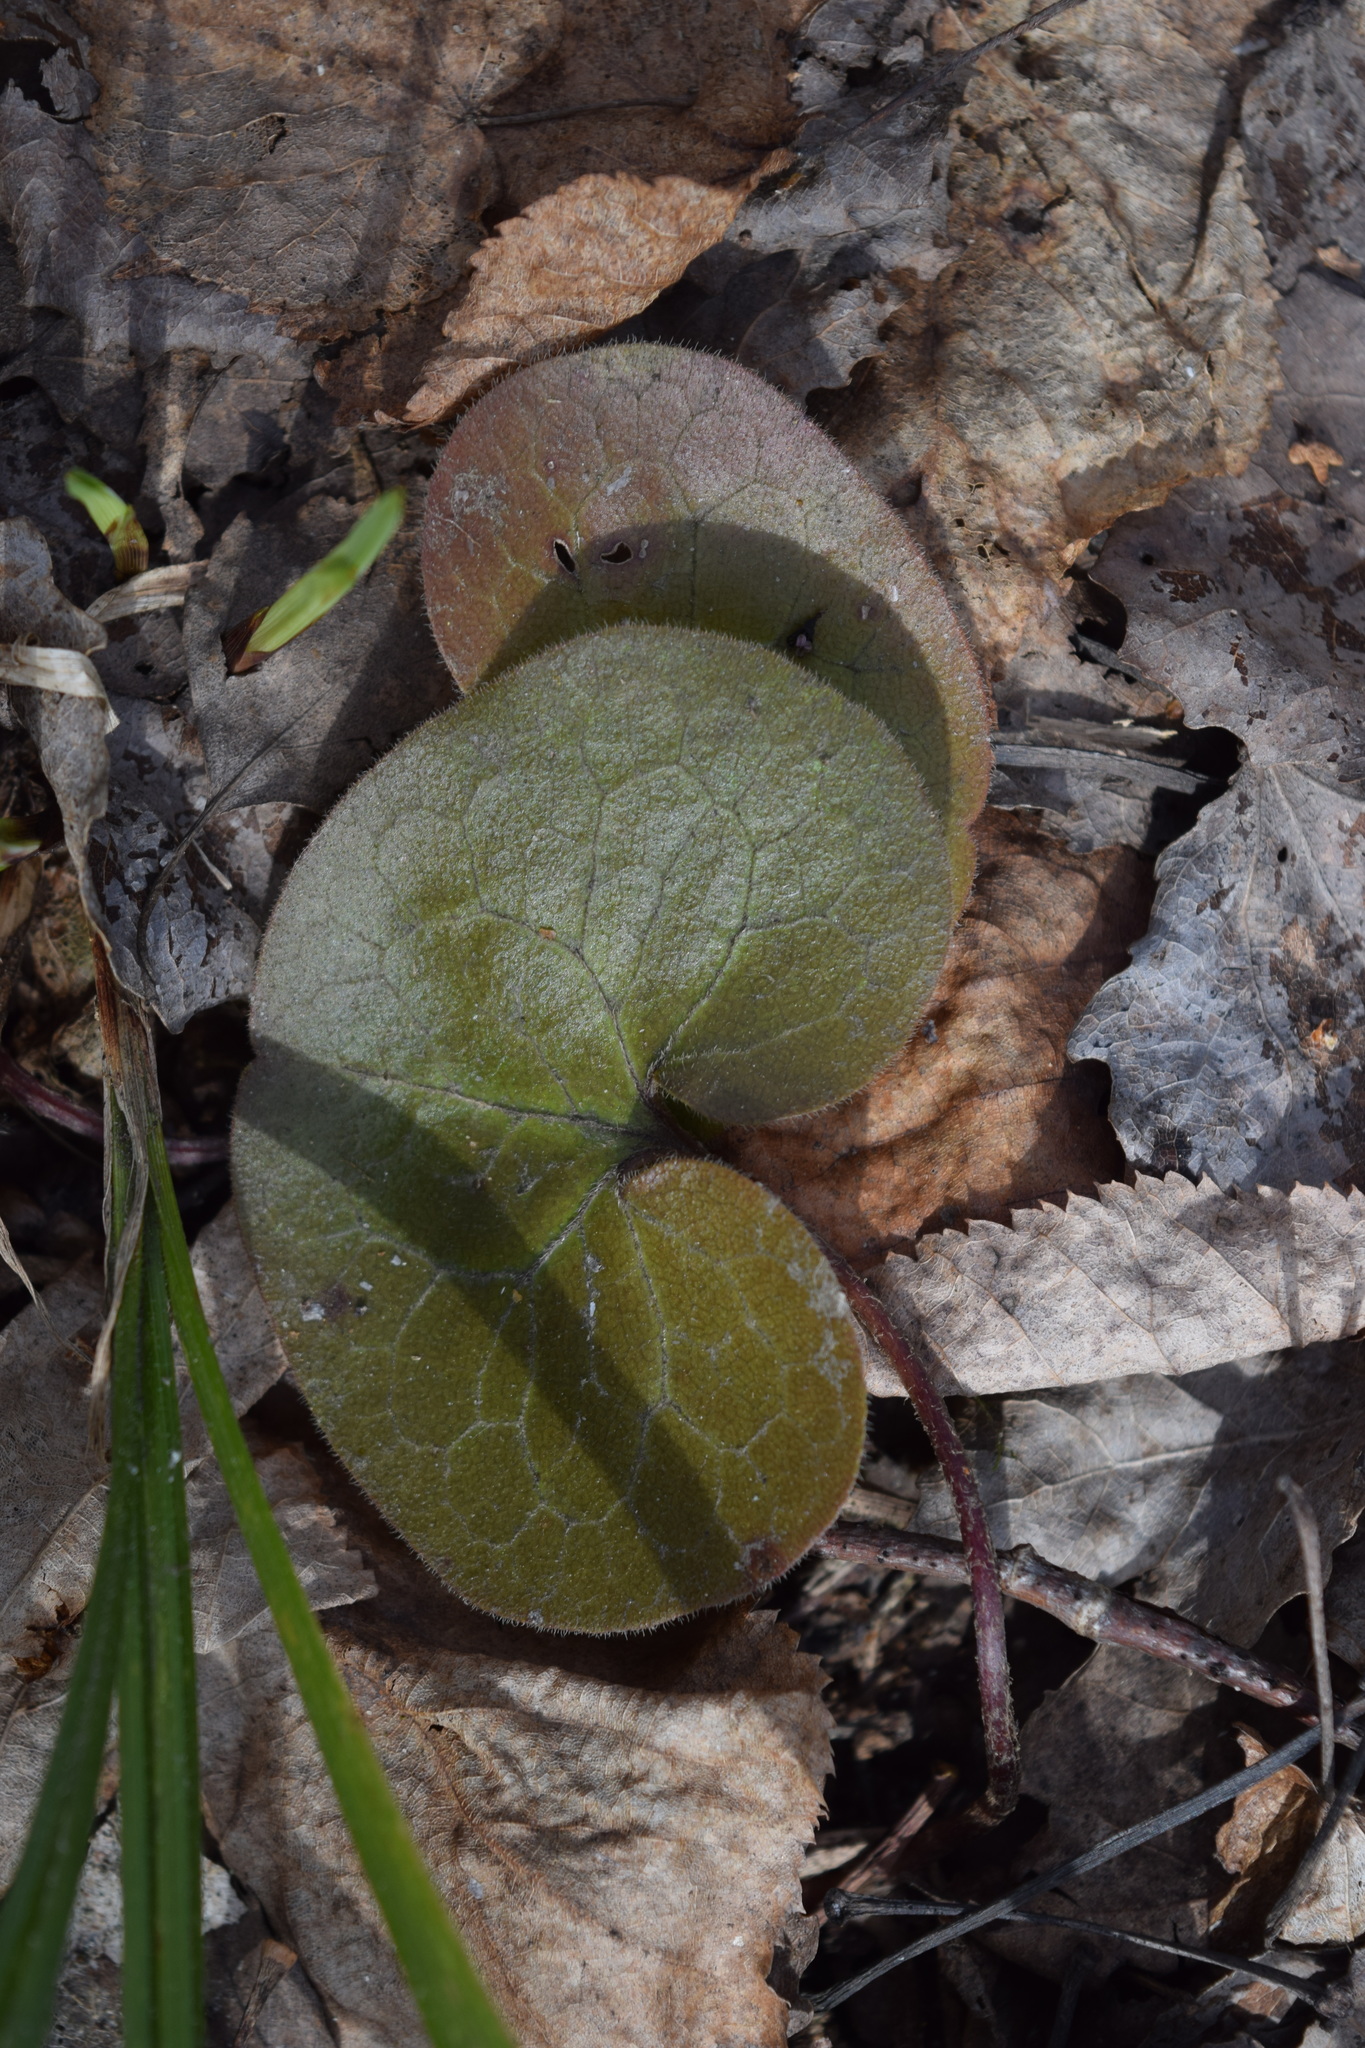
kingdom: Plantae
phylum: Tracheophyta
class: Magnoliopsida
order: Piperales
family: Aristolochiaceae
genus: Asarum
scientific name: Asarum europaeum
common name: Asarabacca
